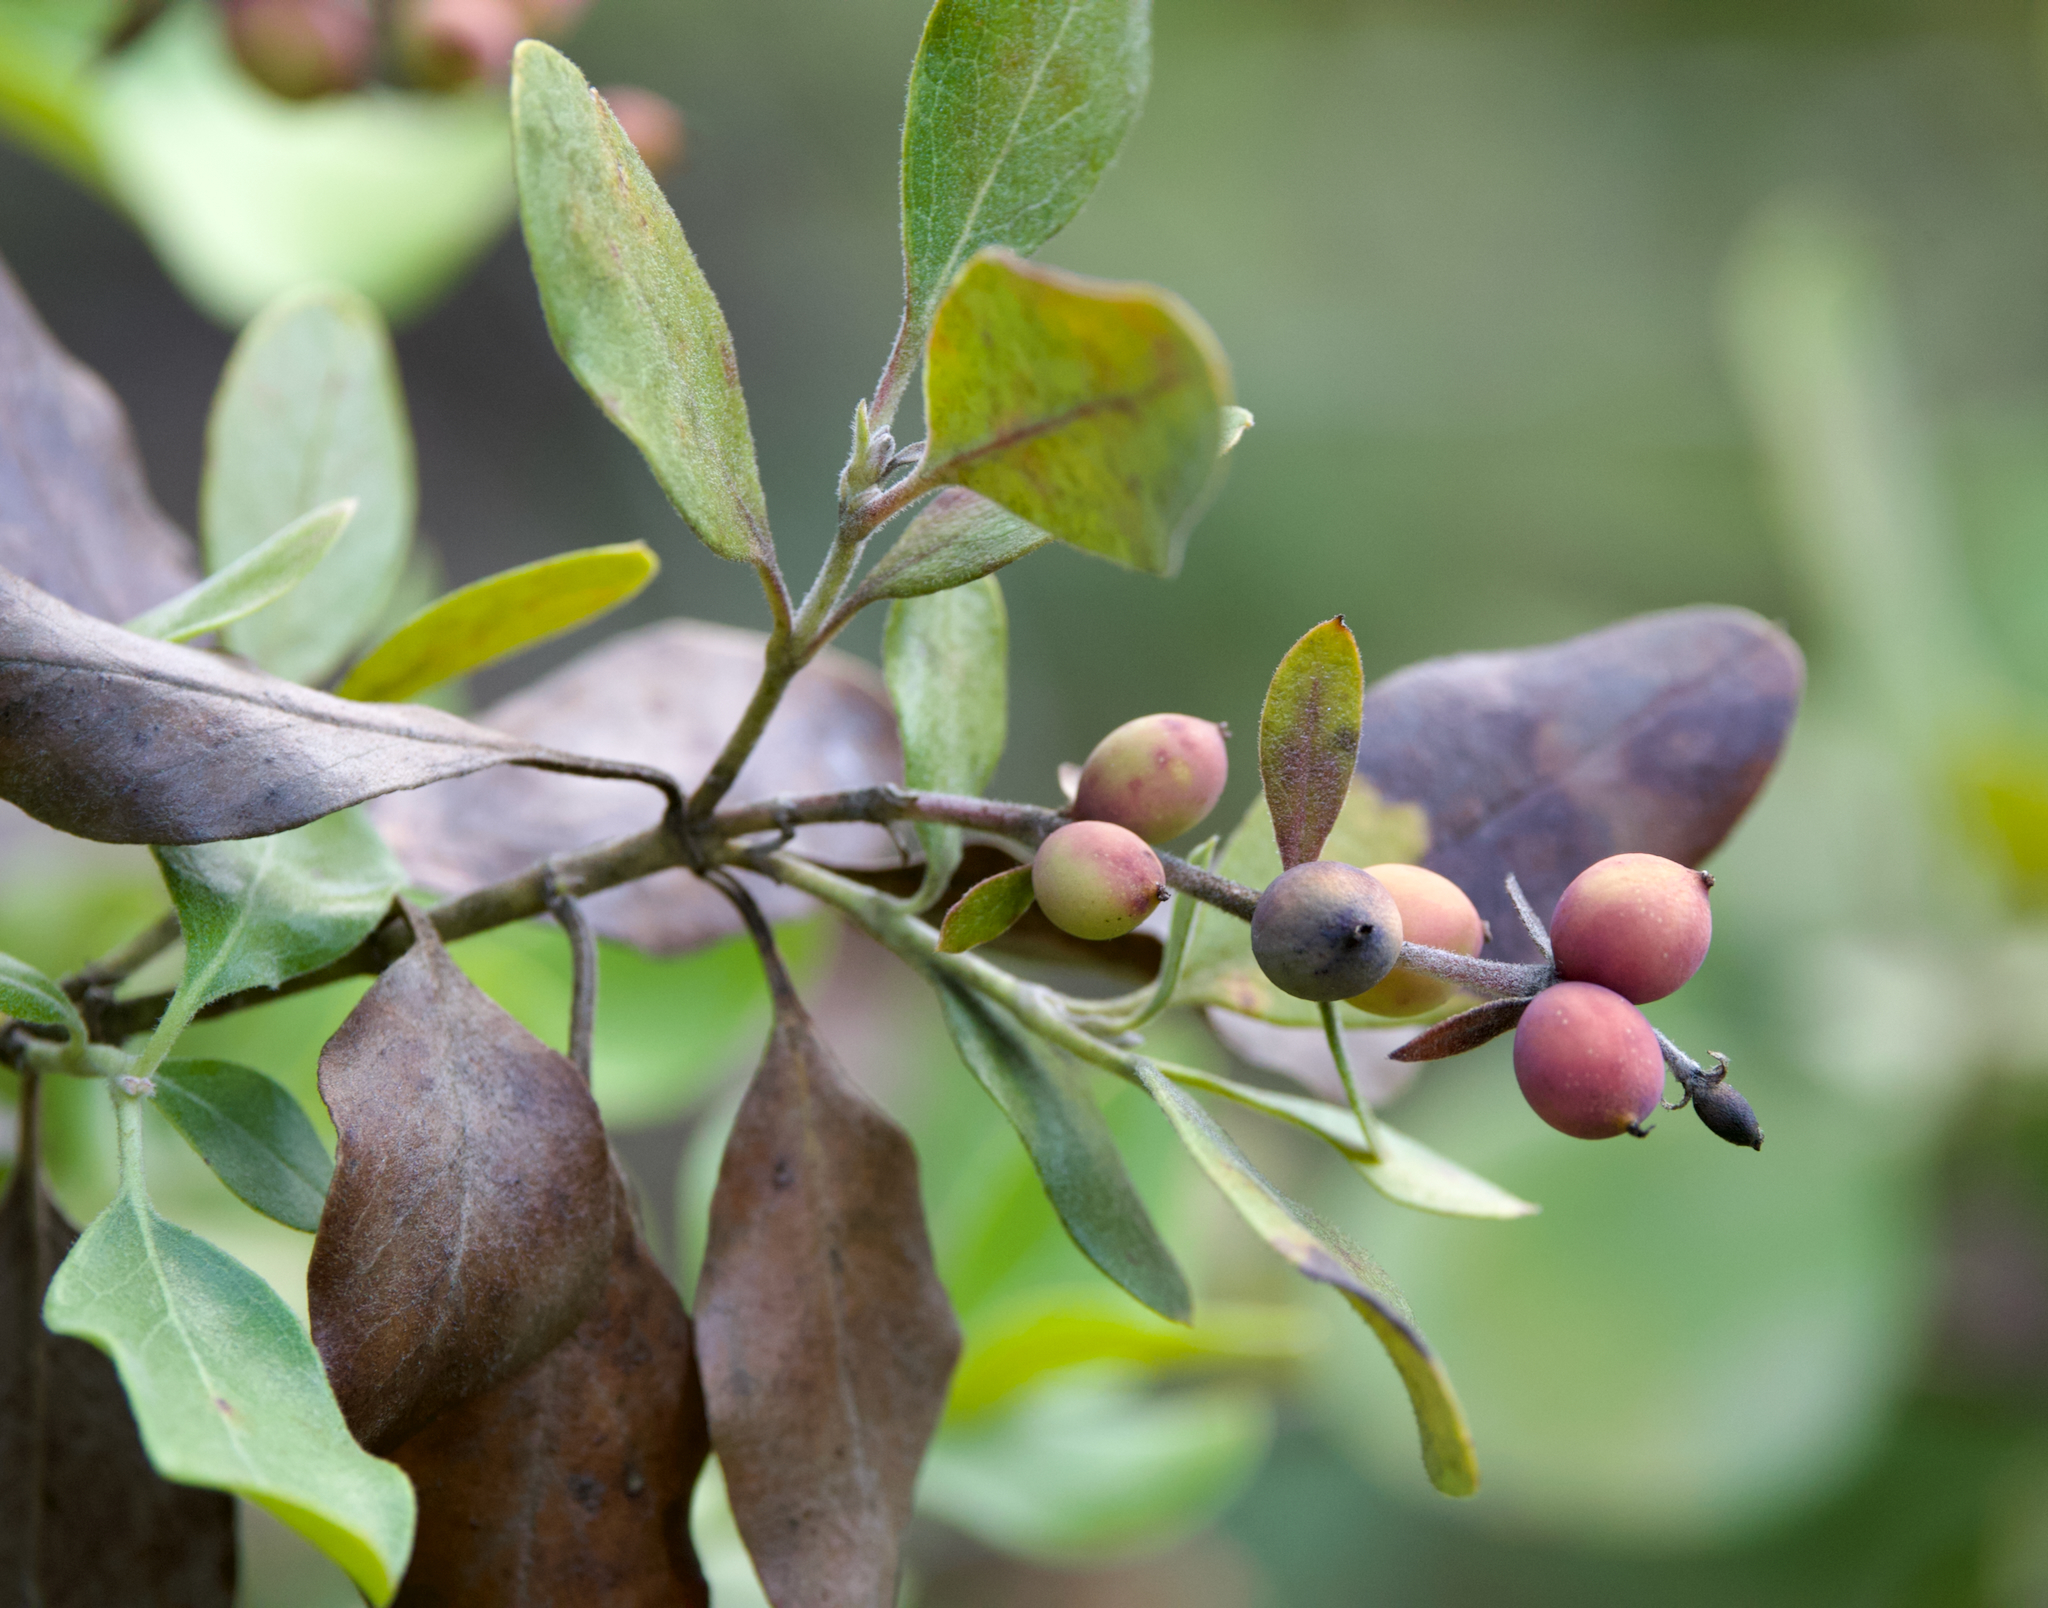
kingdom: Plantae
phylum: Tracheophyta
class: Magnoliopsida
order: Garryales
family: Garryaceae
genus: Garrya
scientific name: Garrya lindheimeri
